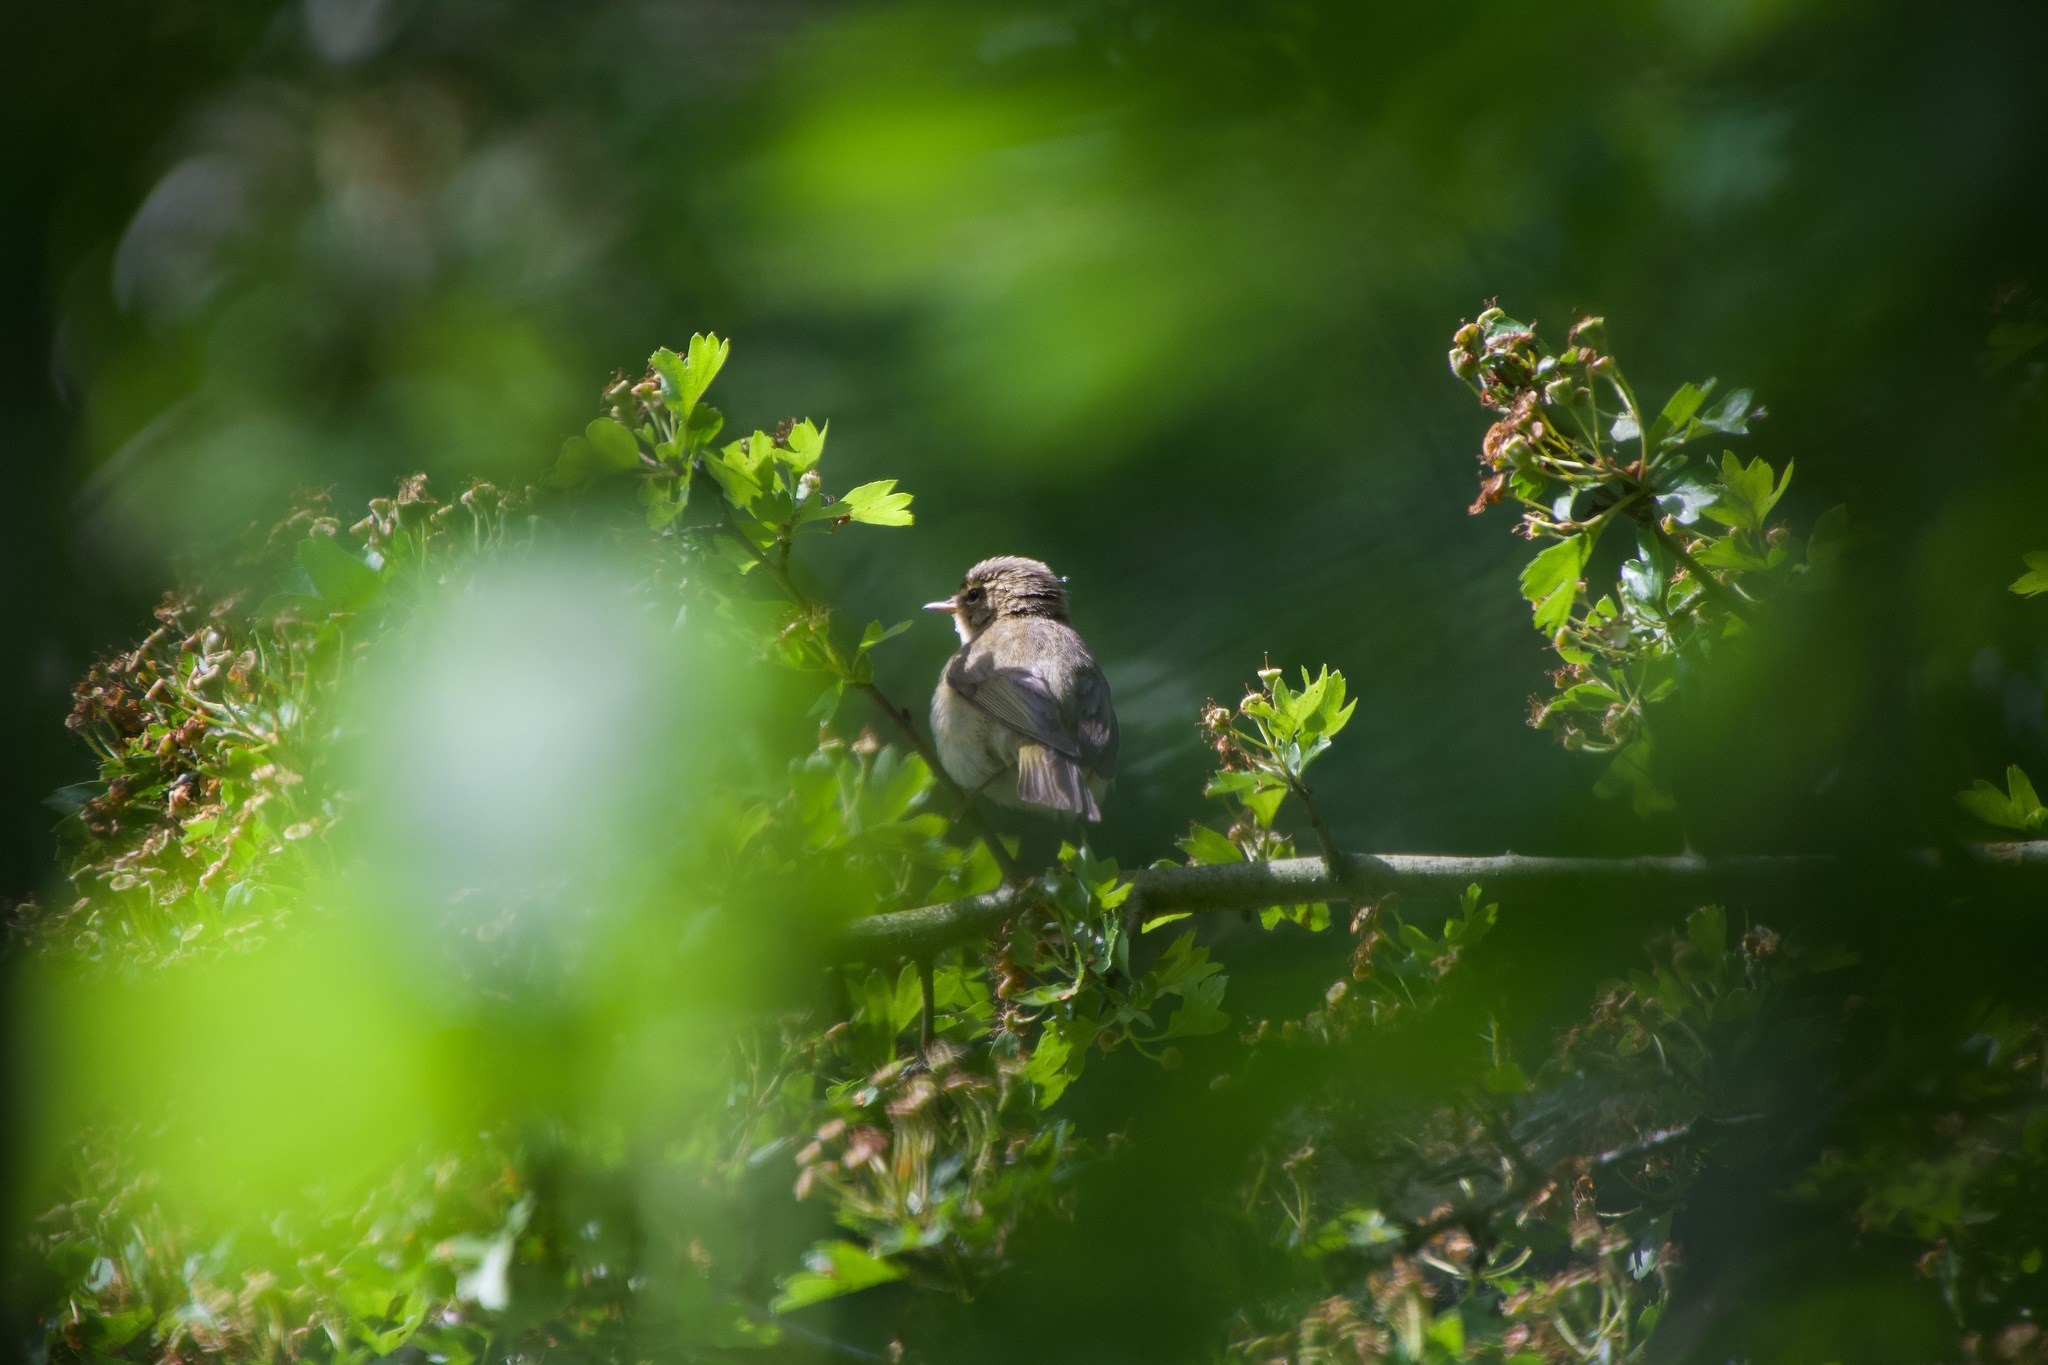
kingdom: Animalia
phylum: Chordata
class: Aves
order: Passeriformes
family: Phylloscopidae
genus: Phylloscopus
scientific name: Phylloscopus collybita
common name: Common chiffchaff
